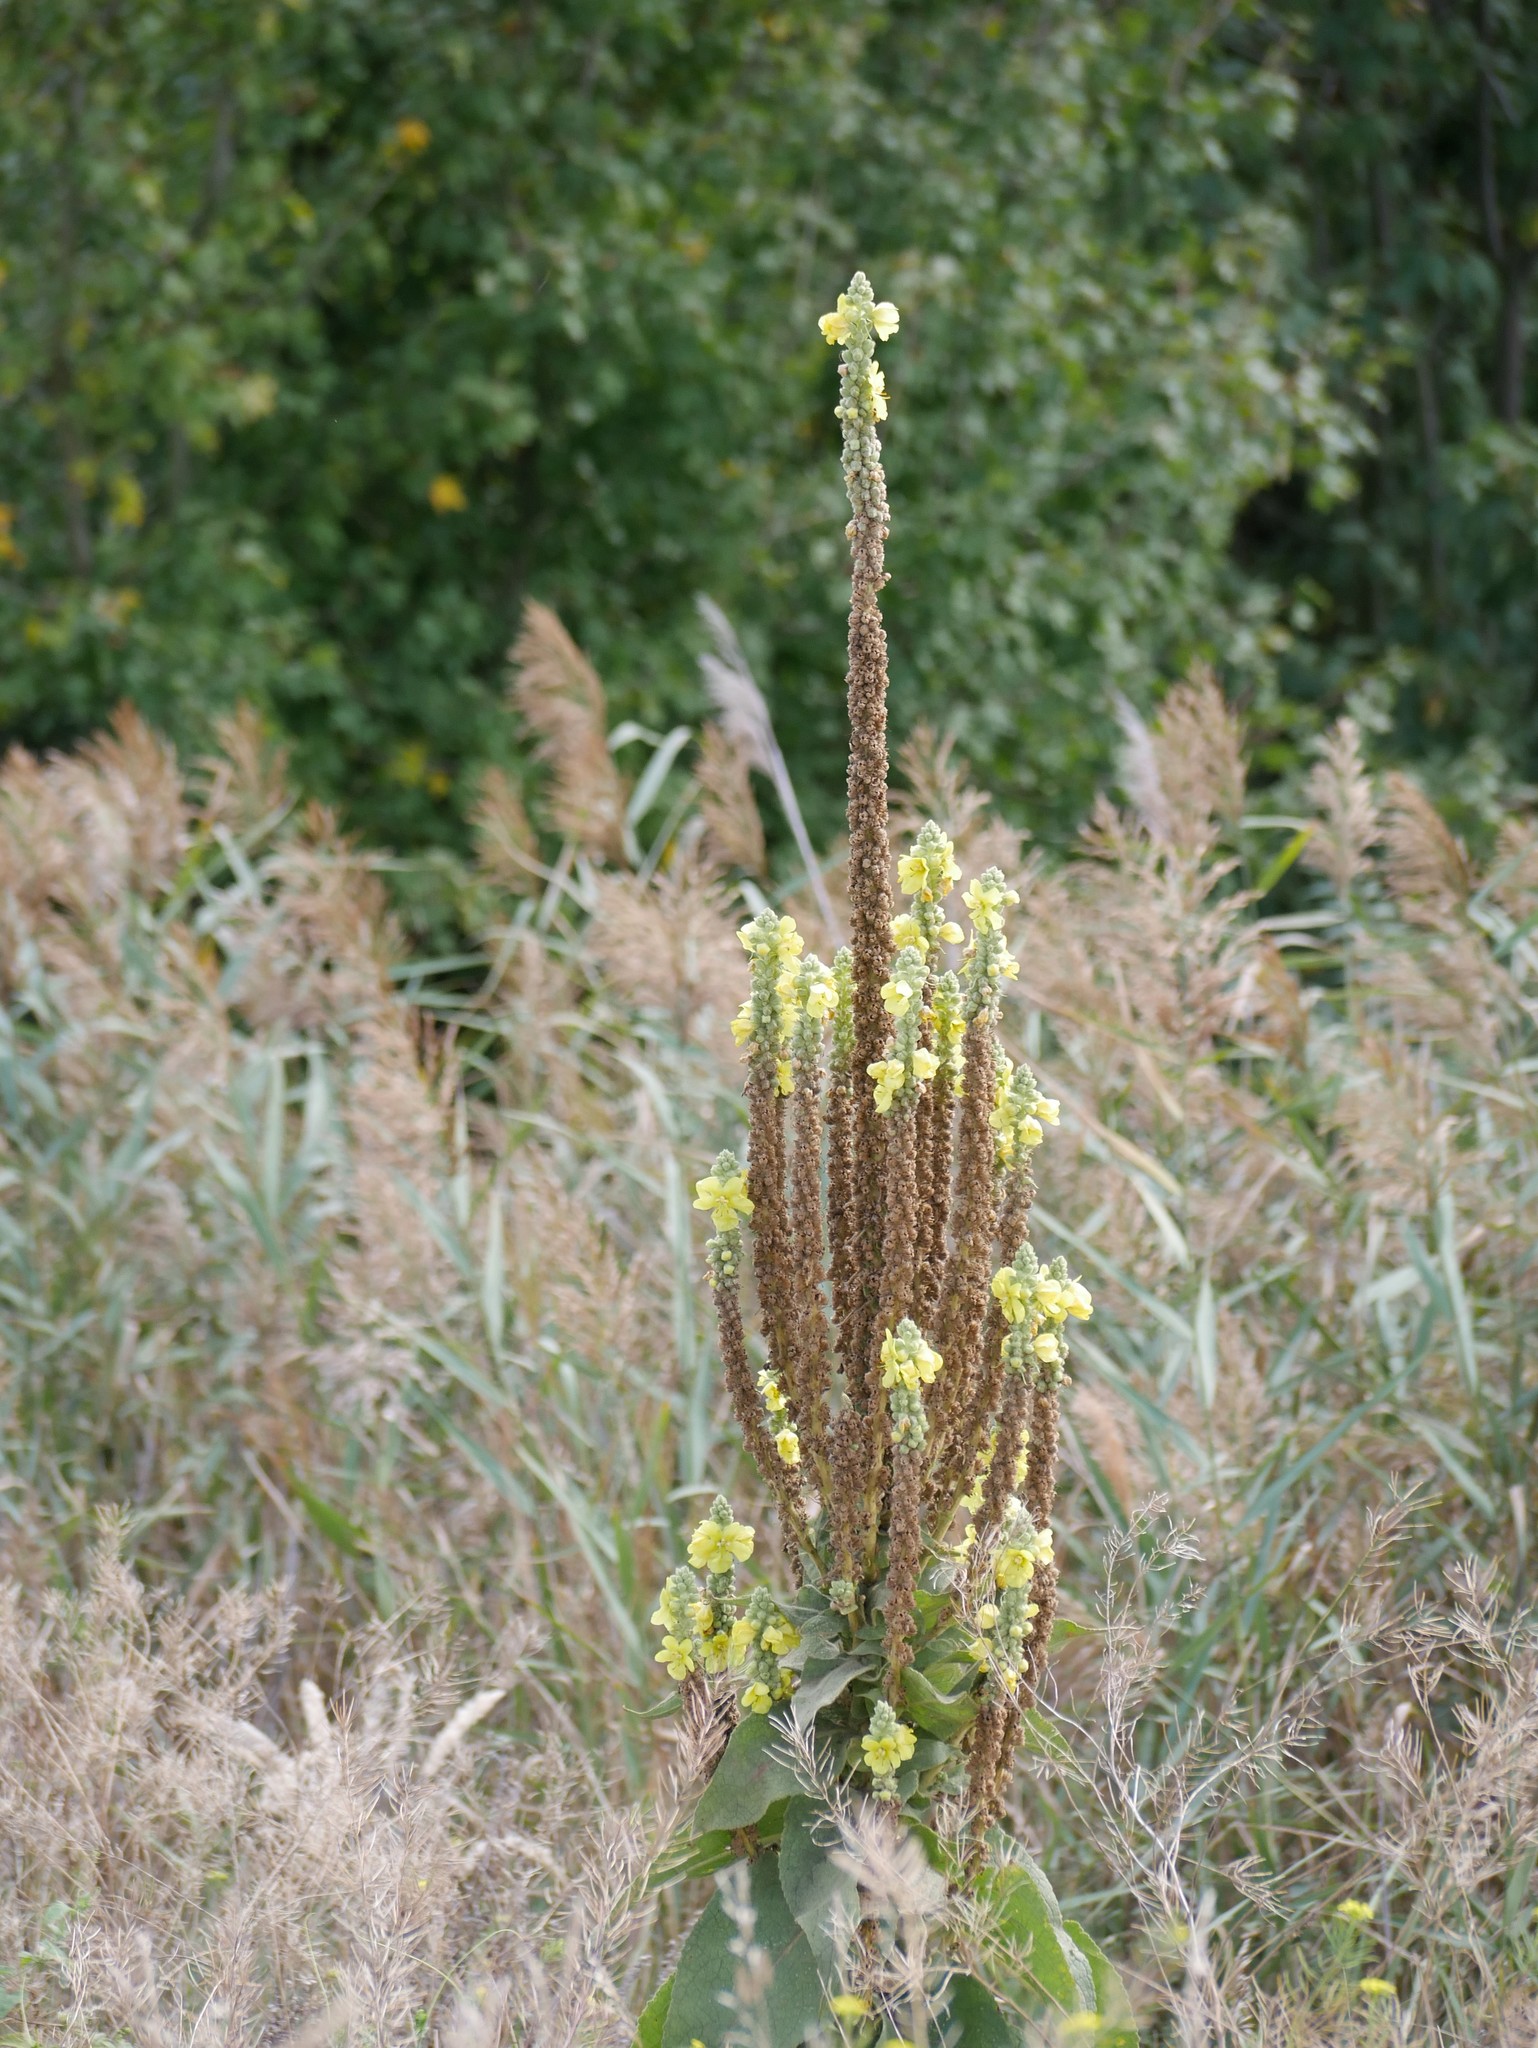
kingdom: Plantae
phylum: Tracheophyta
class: Magnoliopsida
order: Lamiales
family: Scrophulariaceae
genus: Verbascum
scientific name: Verbascum thapsus
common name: Common mullein
